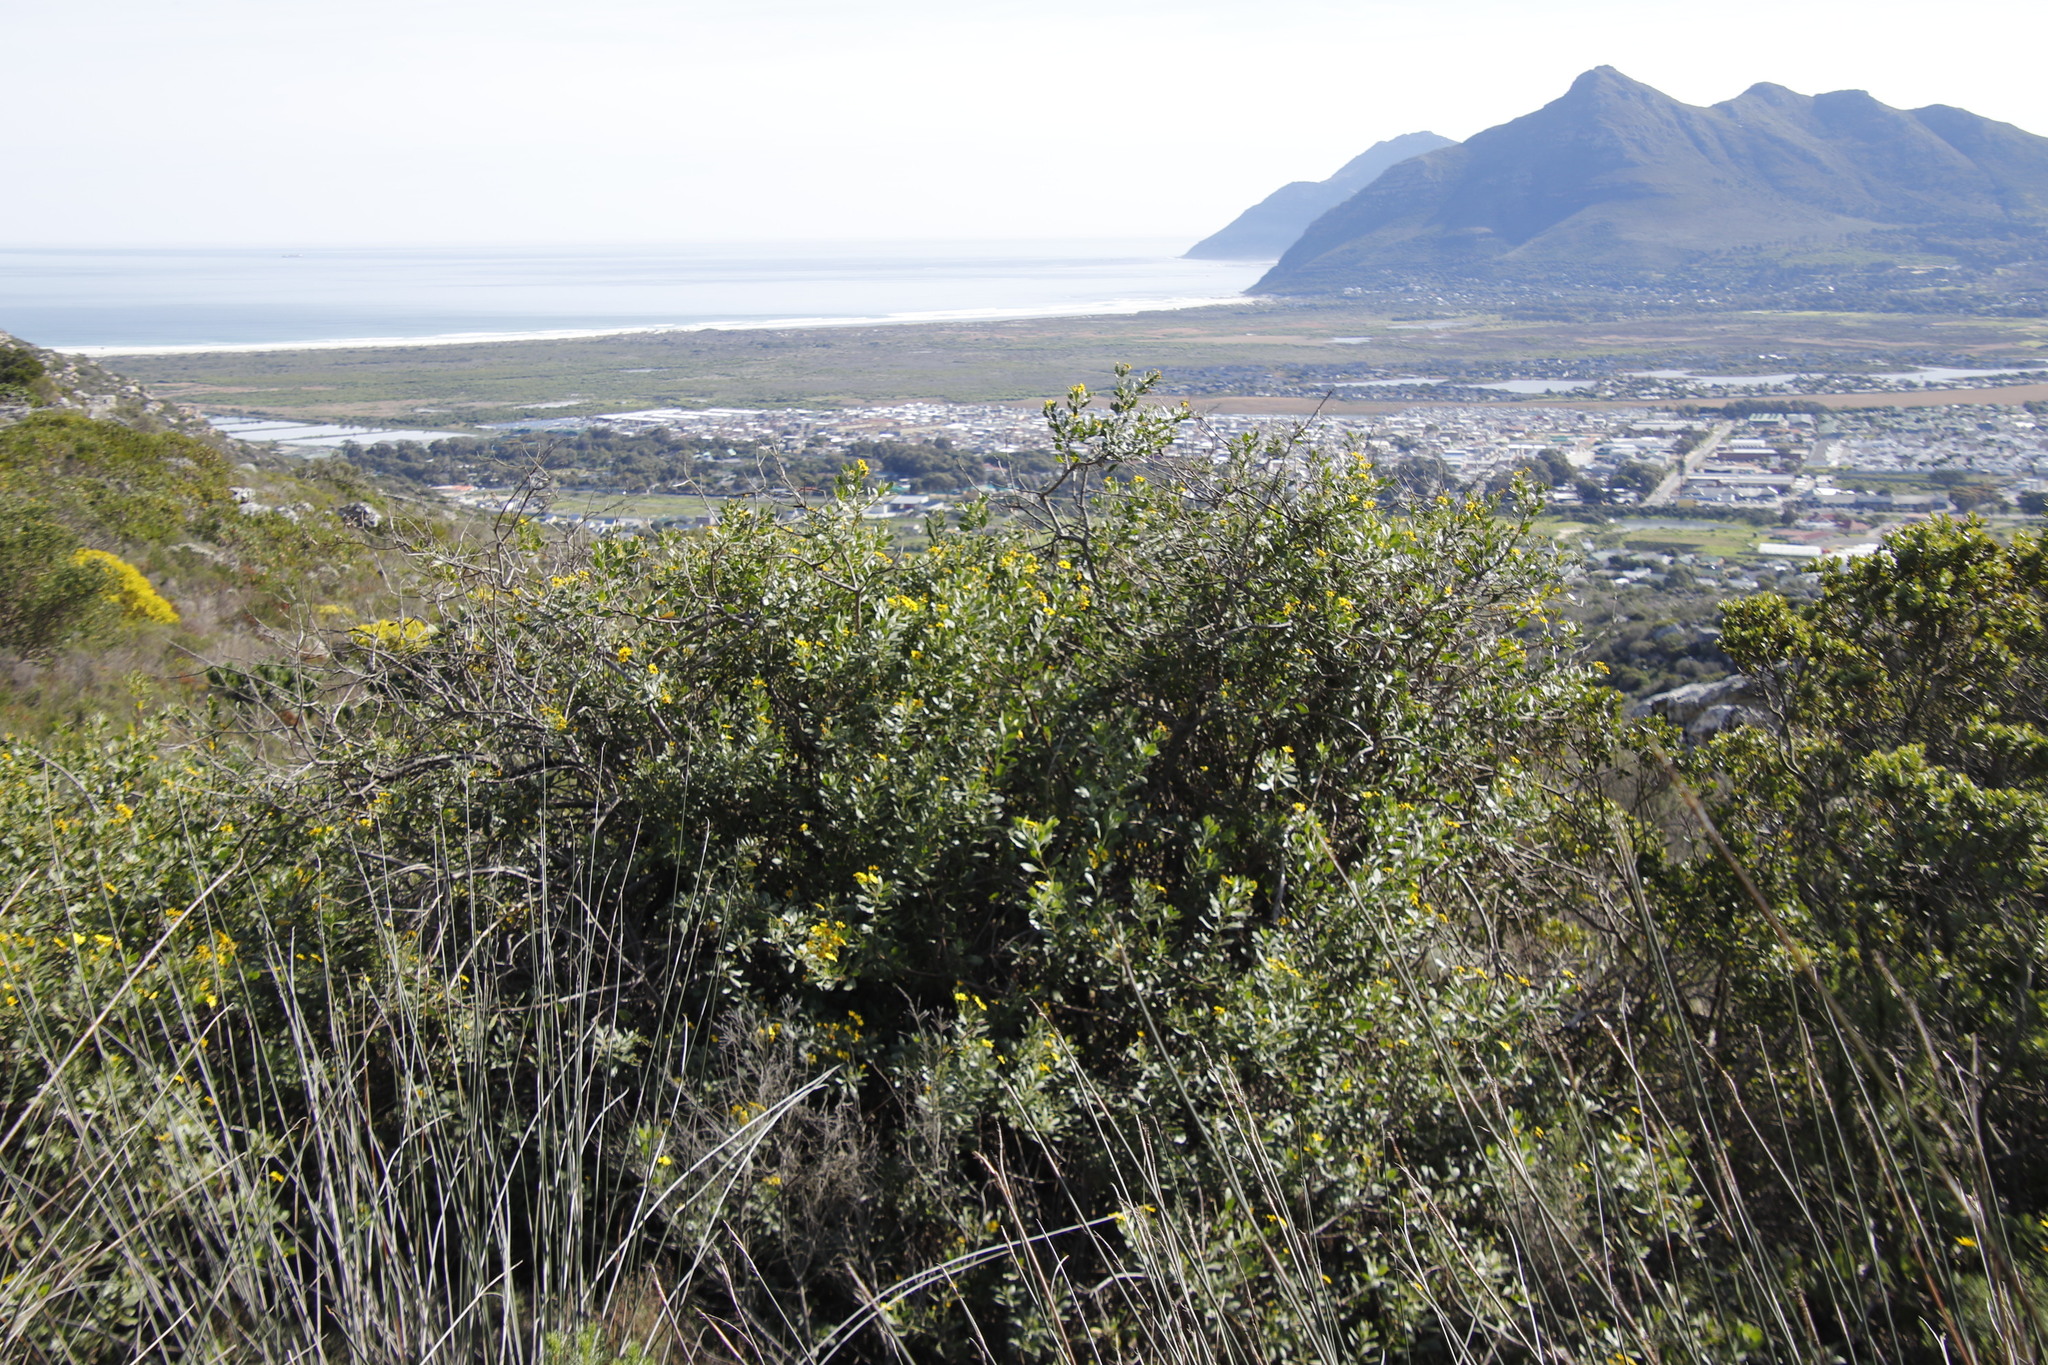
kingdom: Plantae
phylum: Tracheophyta
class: Magnoliopsida
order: Asterales
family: Asteraceae
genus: Osteospermum
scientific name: Osteospermum moniliferum
